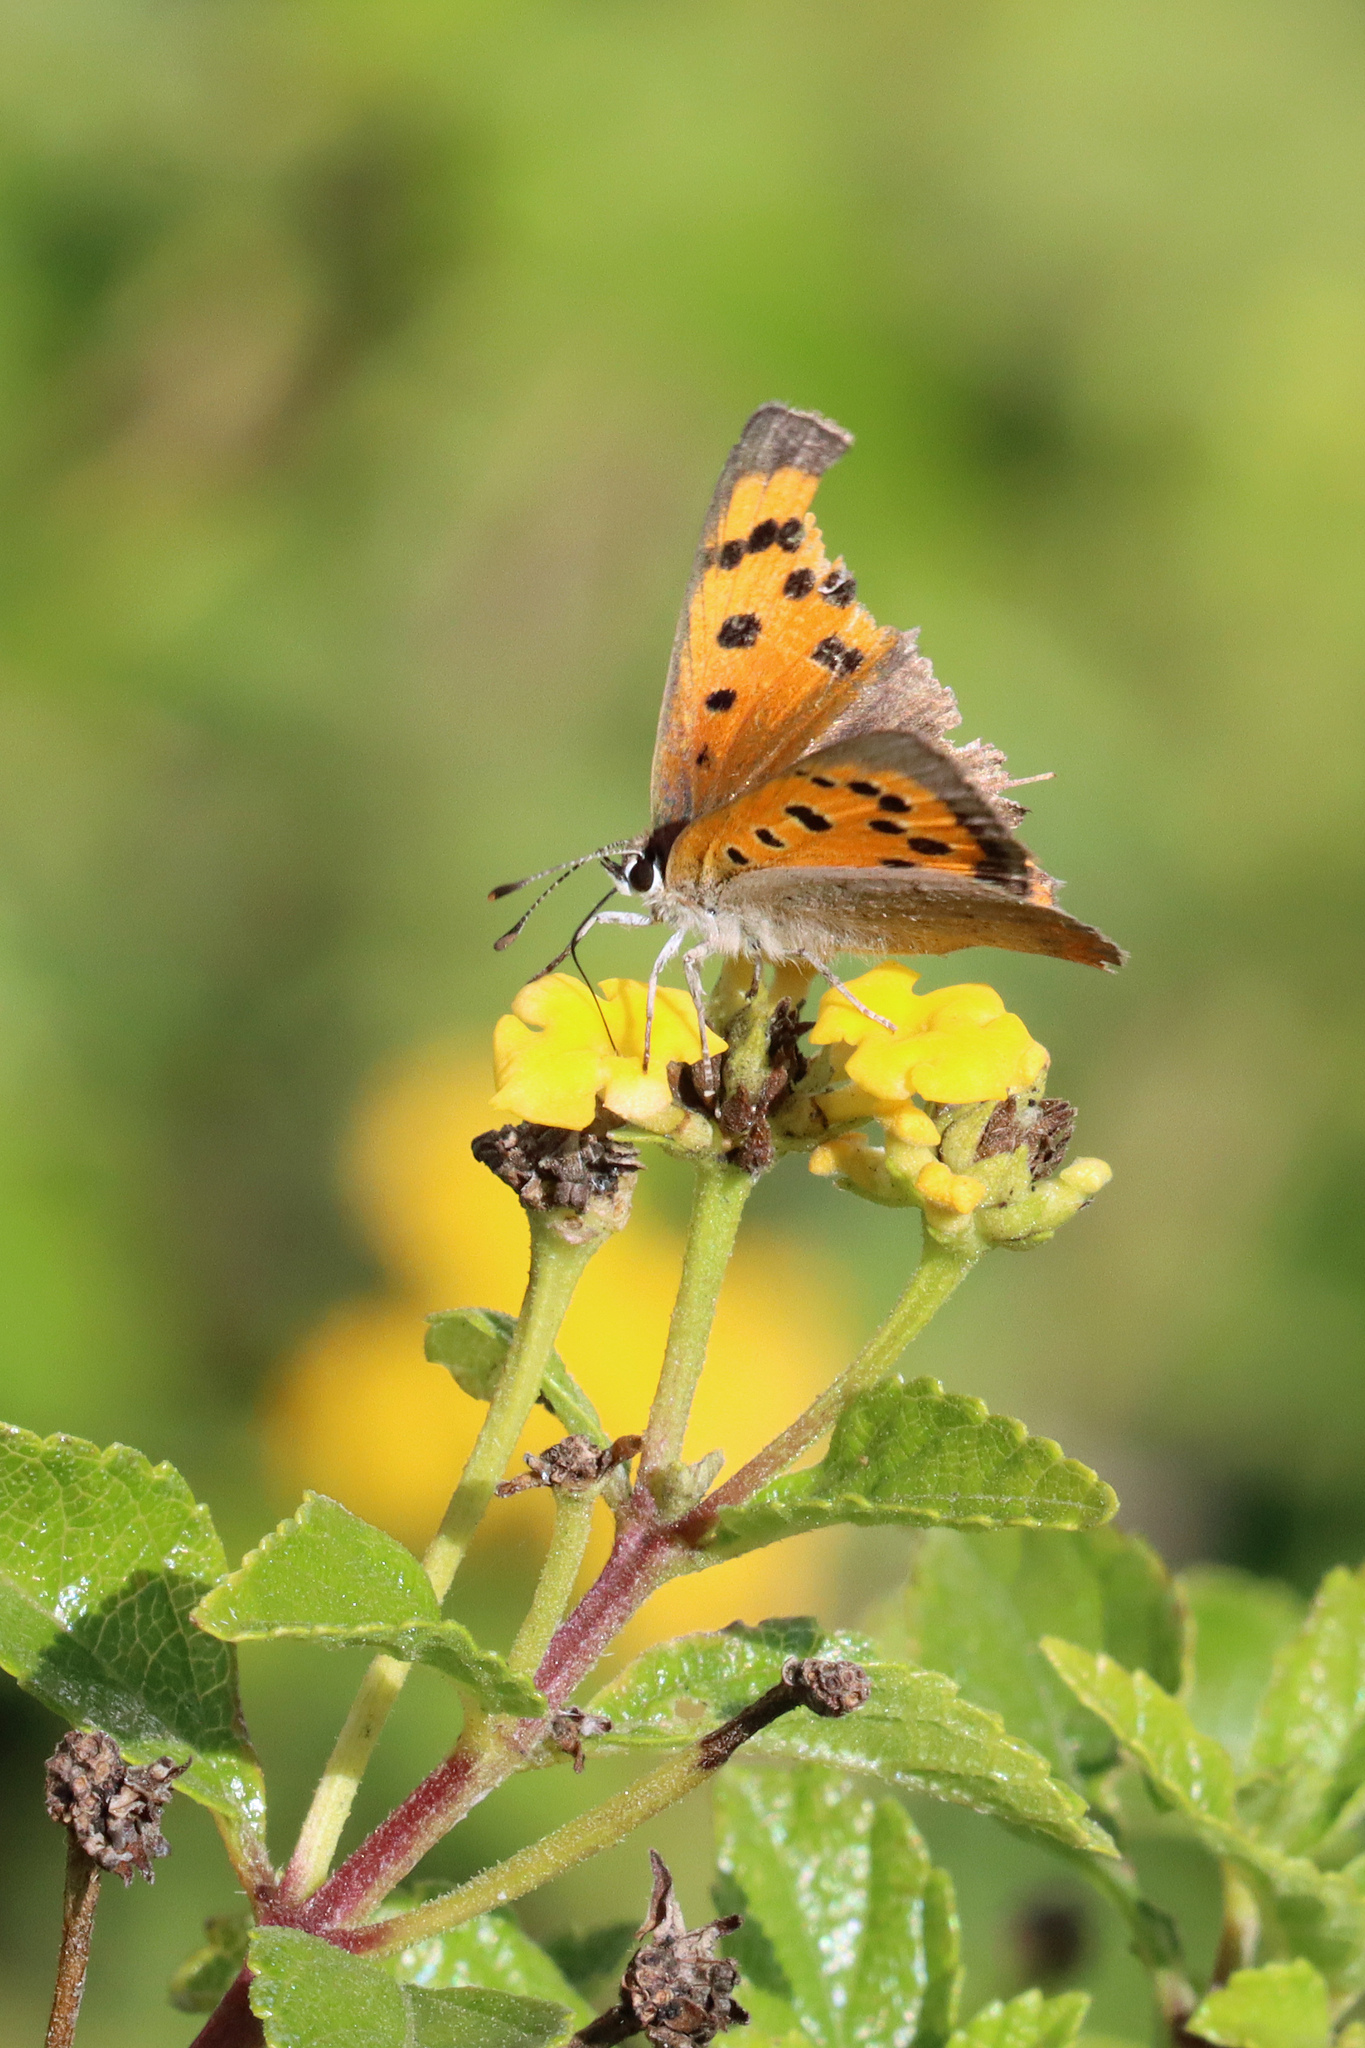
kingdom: Animalia
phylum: Arthropoda
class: Insecta
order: Lepidoptera
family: Lycaenidae
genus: Lycaena
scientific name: Lycaena phlaeas
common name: Small copper
